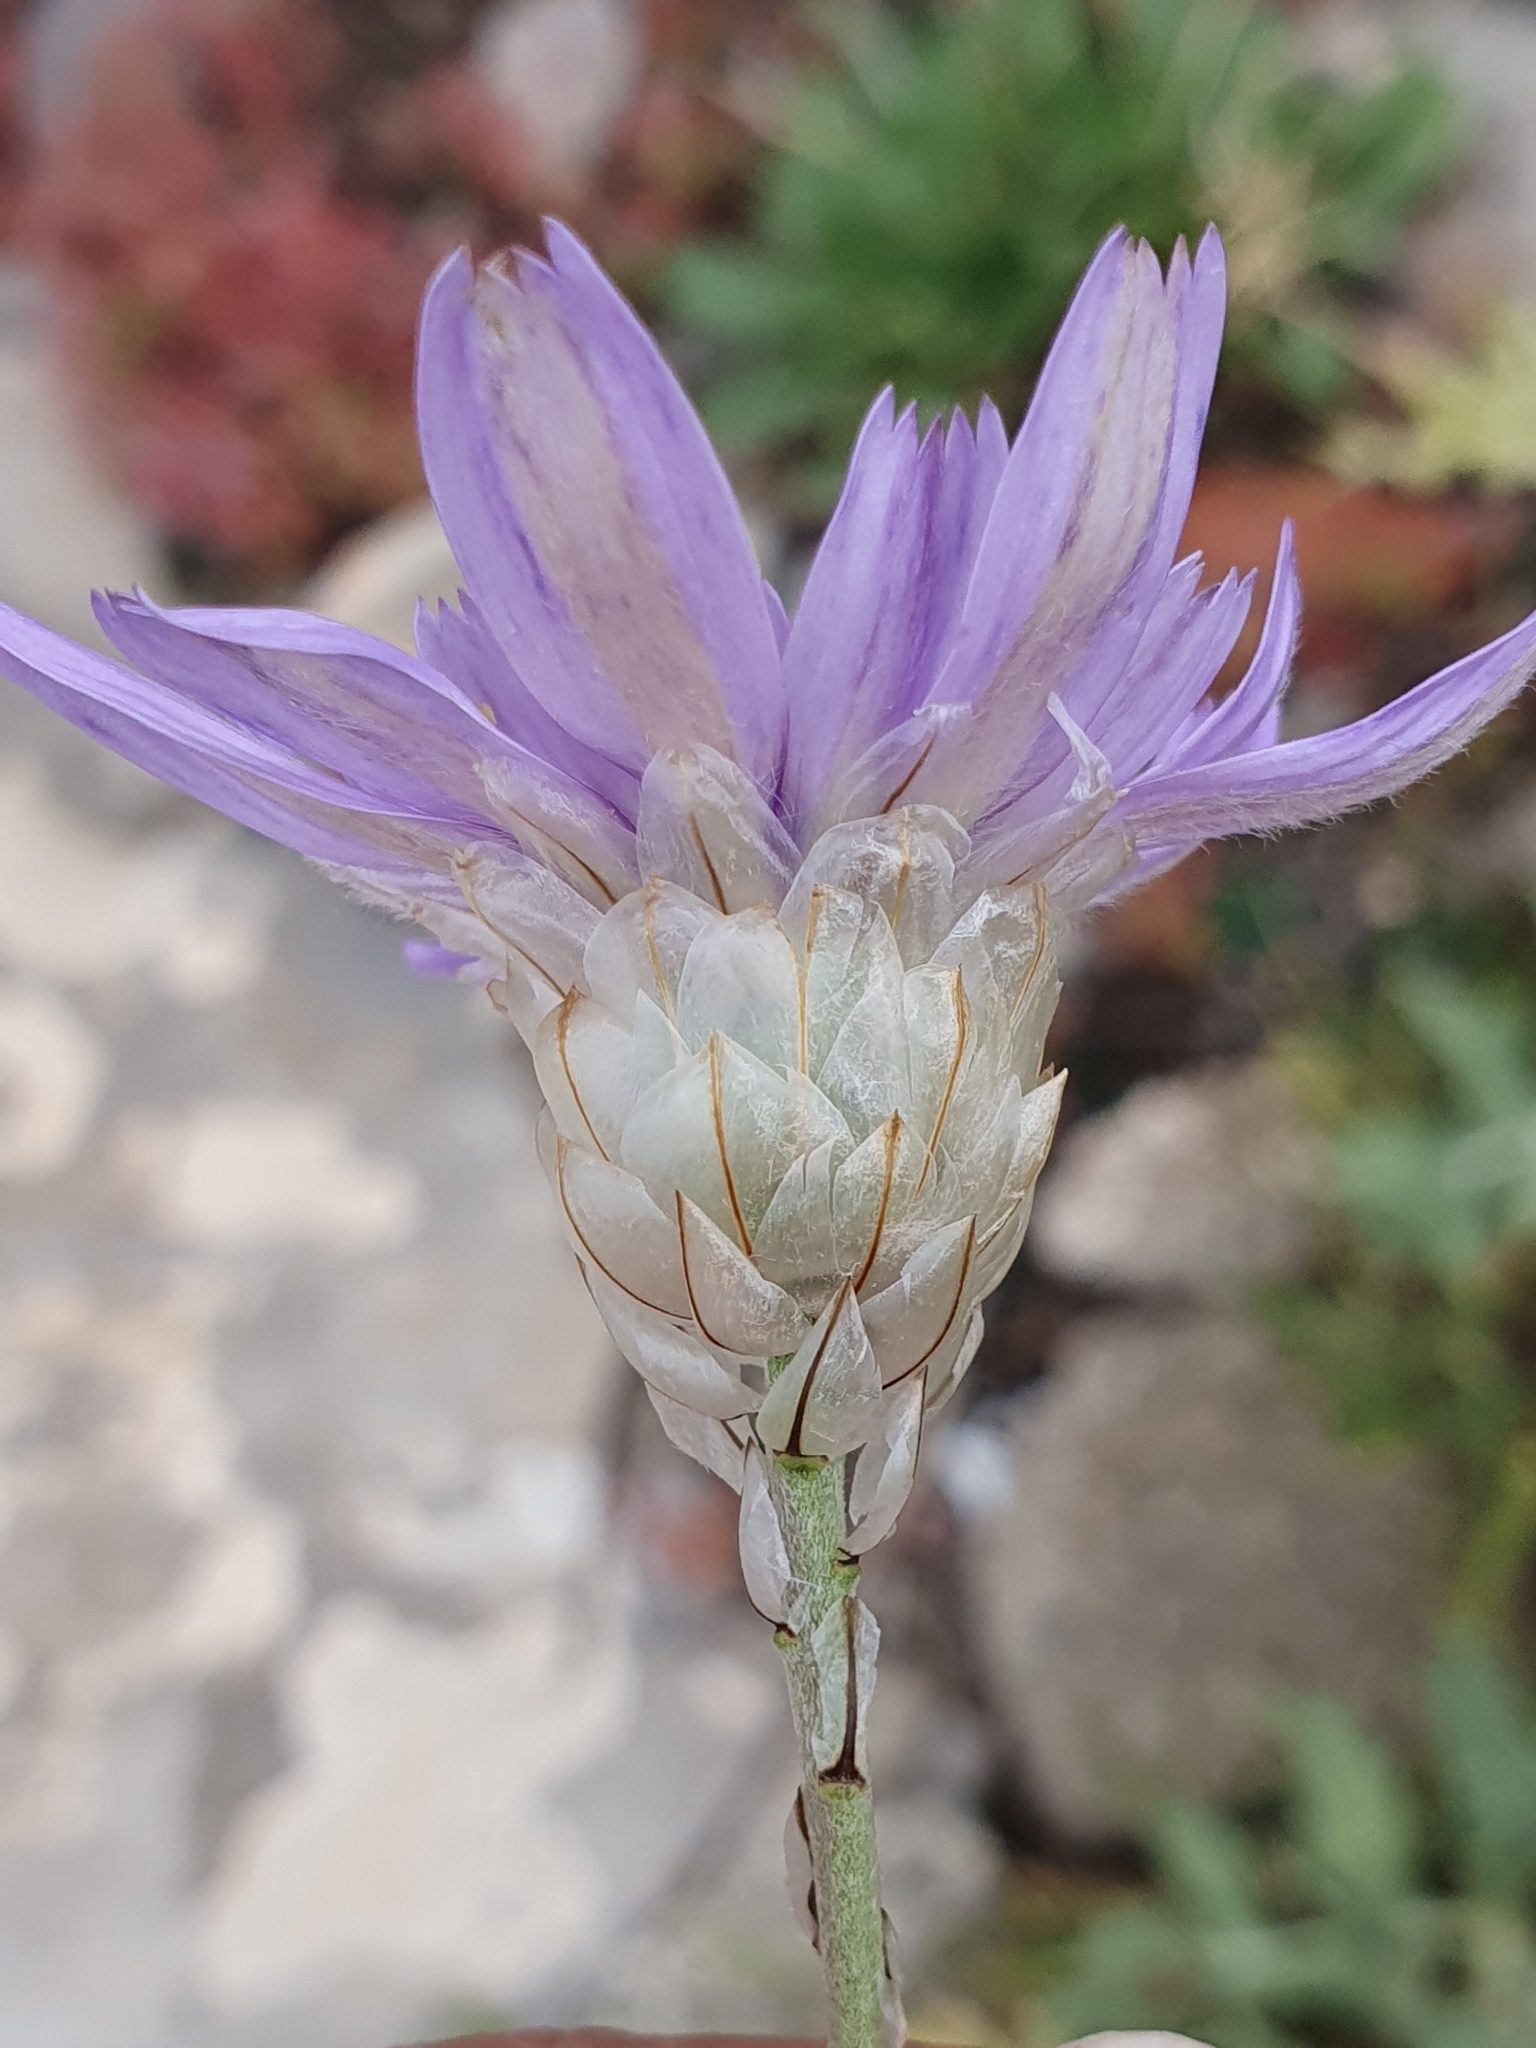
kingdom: Plantae
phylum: Tracheophyta
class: Magnoliopsida
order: Asterales
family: Asteraceae
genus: Catananche
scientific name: Catananche caerulea
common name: Blue cupidone
